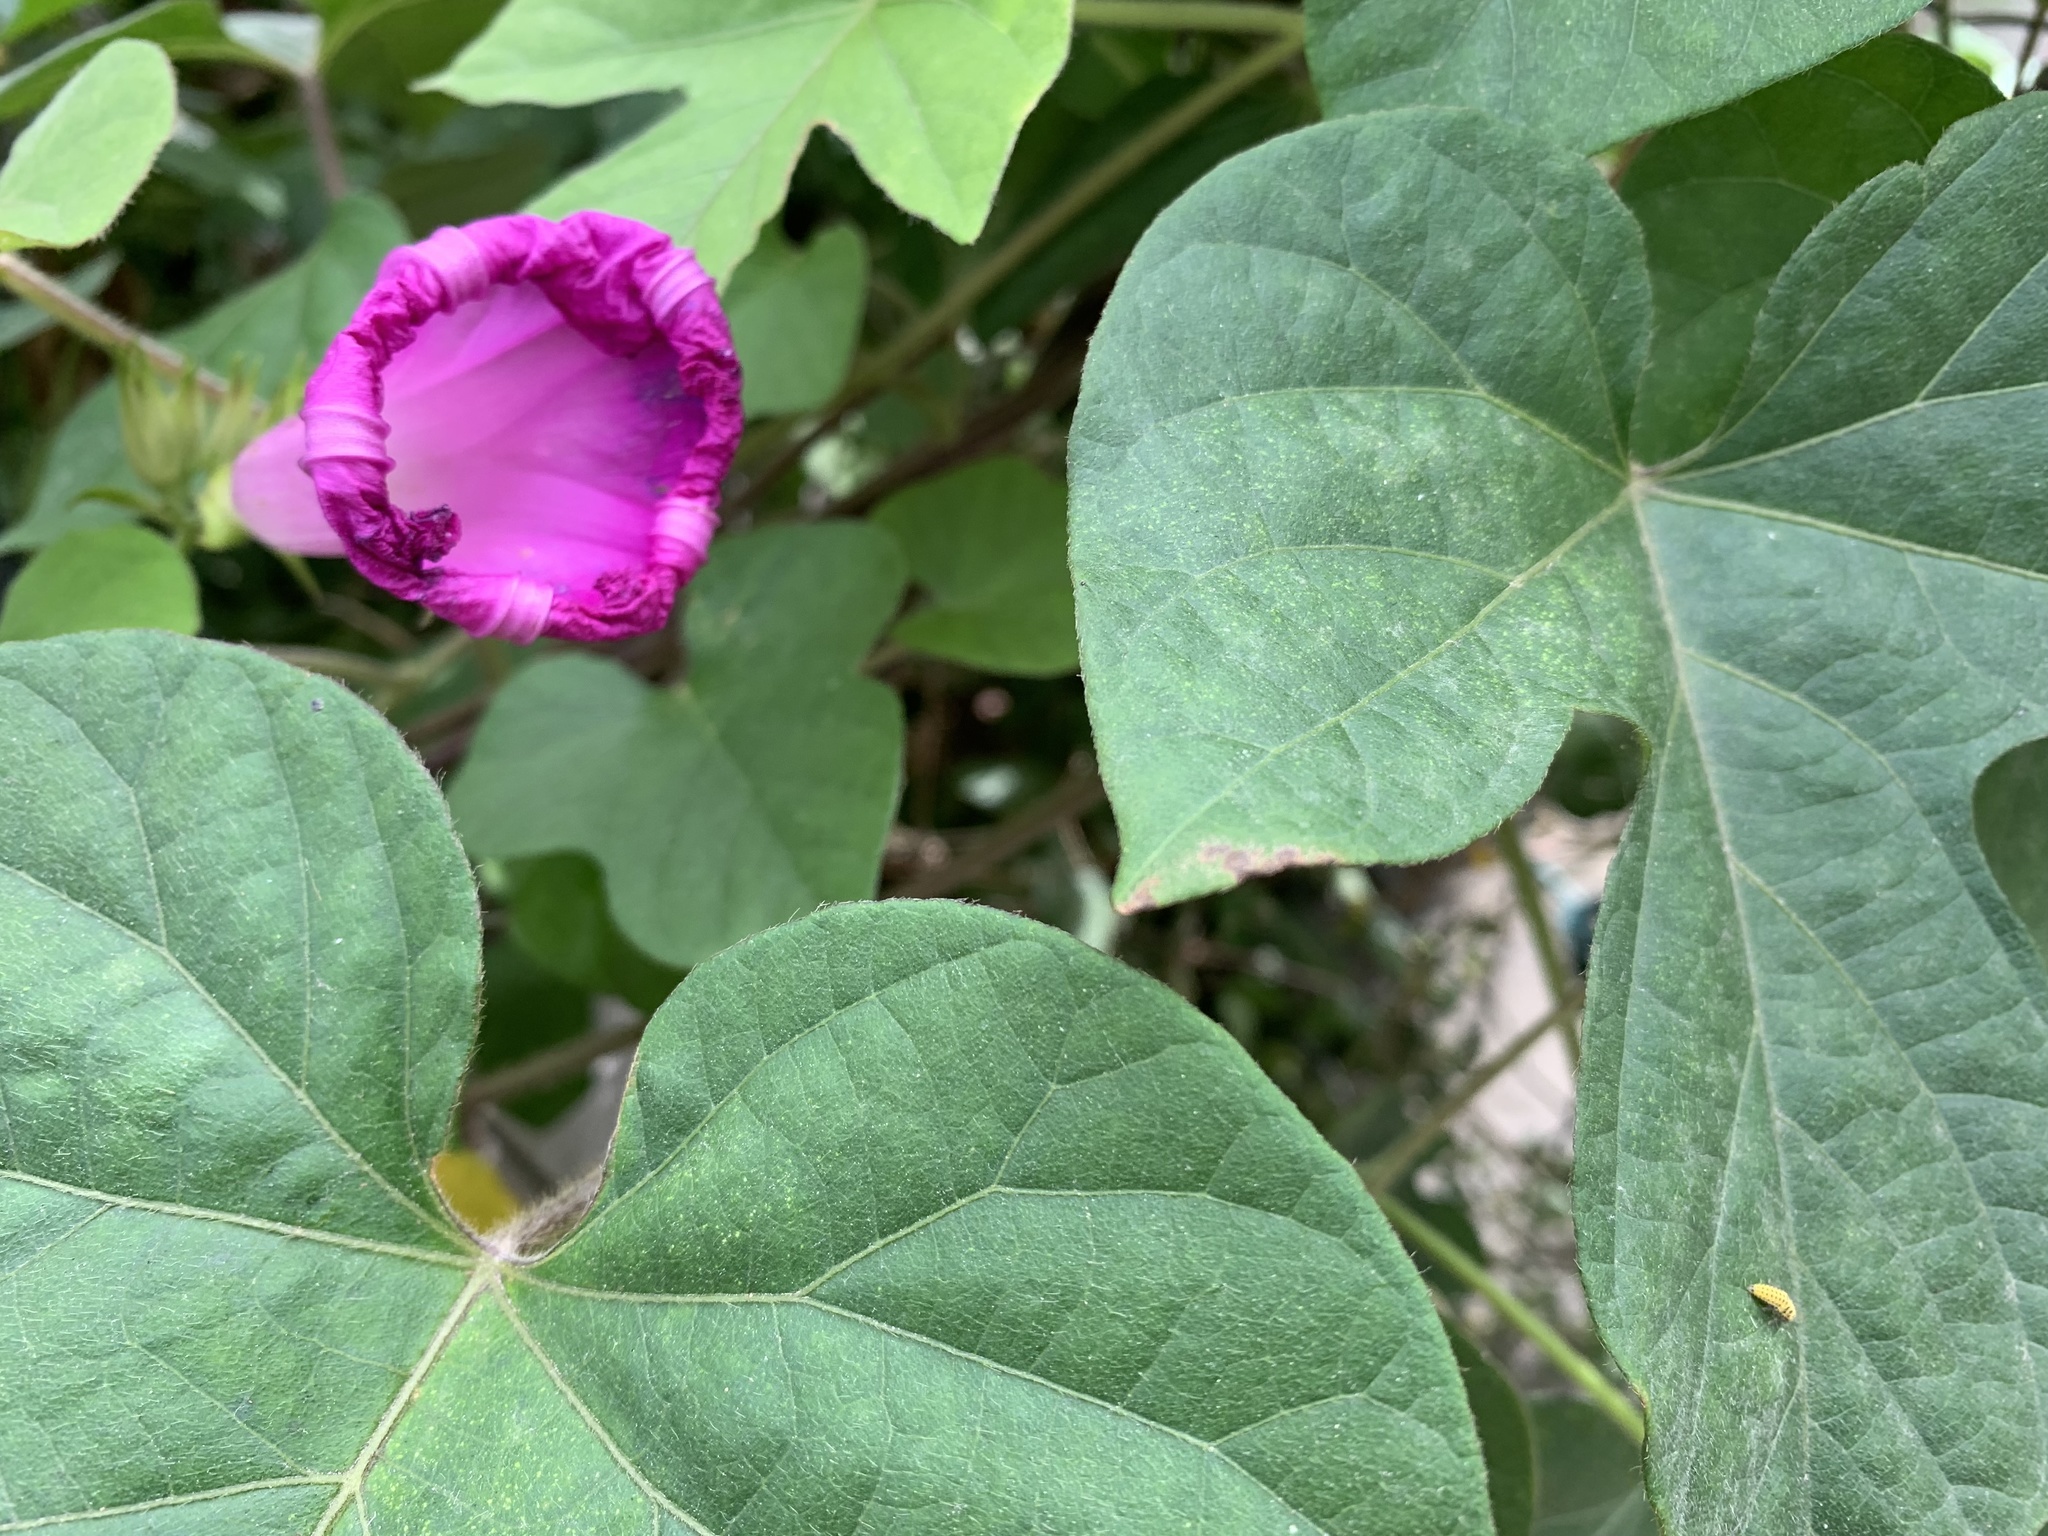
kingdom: Plantae
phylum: Tracheophyta
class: Magnoliopsida
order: Solanales
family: Convolvulaceae
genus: Ipomoea
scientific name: Ipomoea indica
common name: Blue dawnflower
